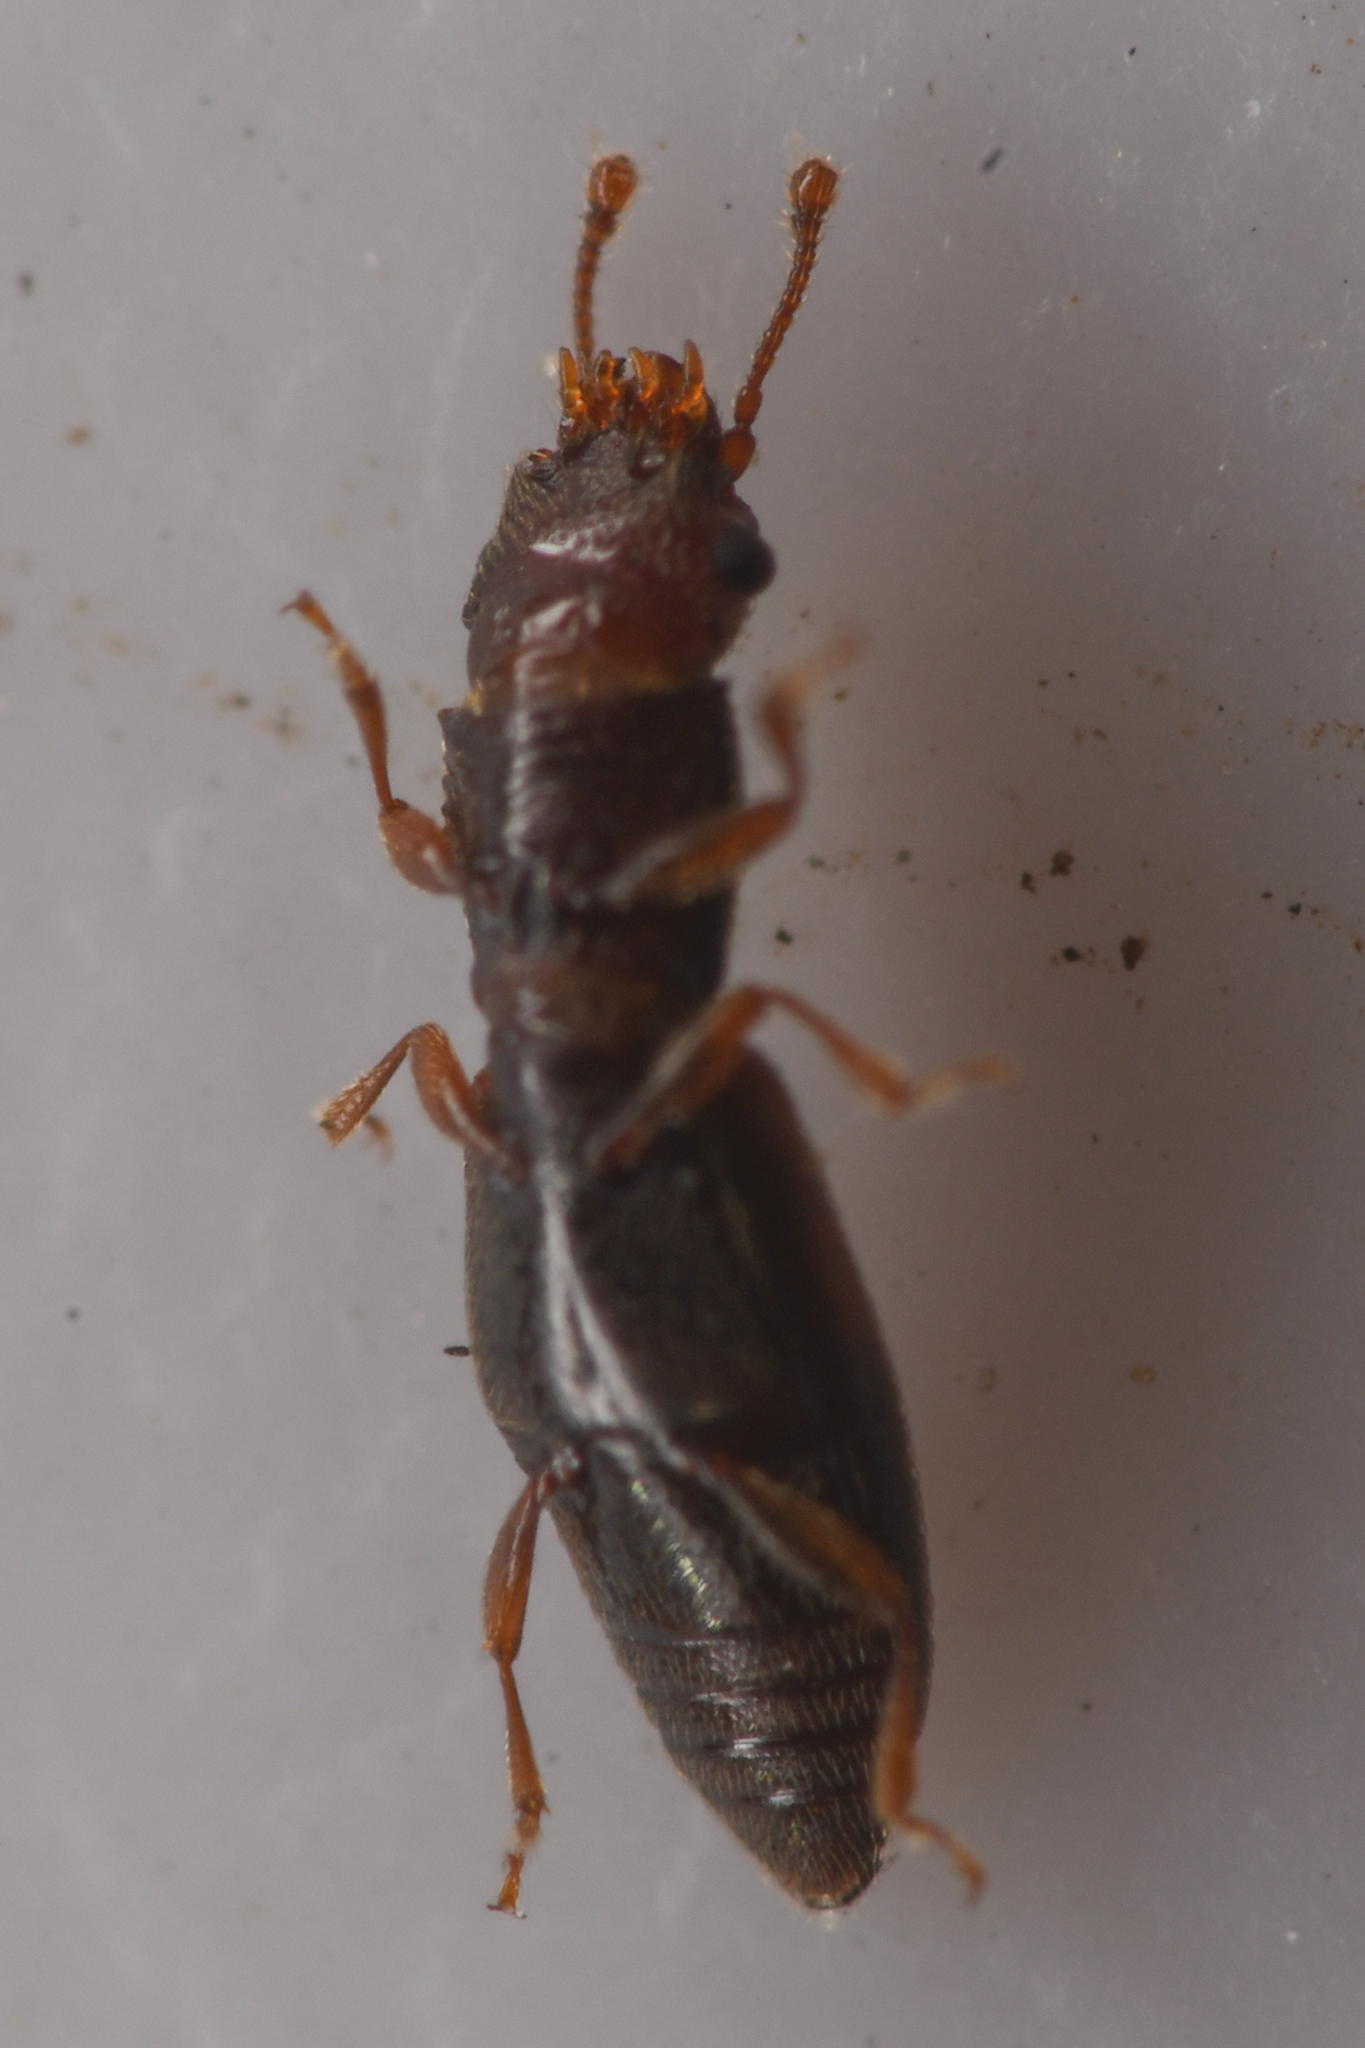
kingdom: Animalia
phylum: Arthropoda
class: Insecta
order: Coleoptera
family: Monotomidae
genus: Hesperobaenus
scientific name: Hesperobaenus abbreviatus
